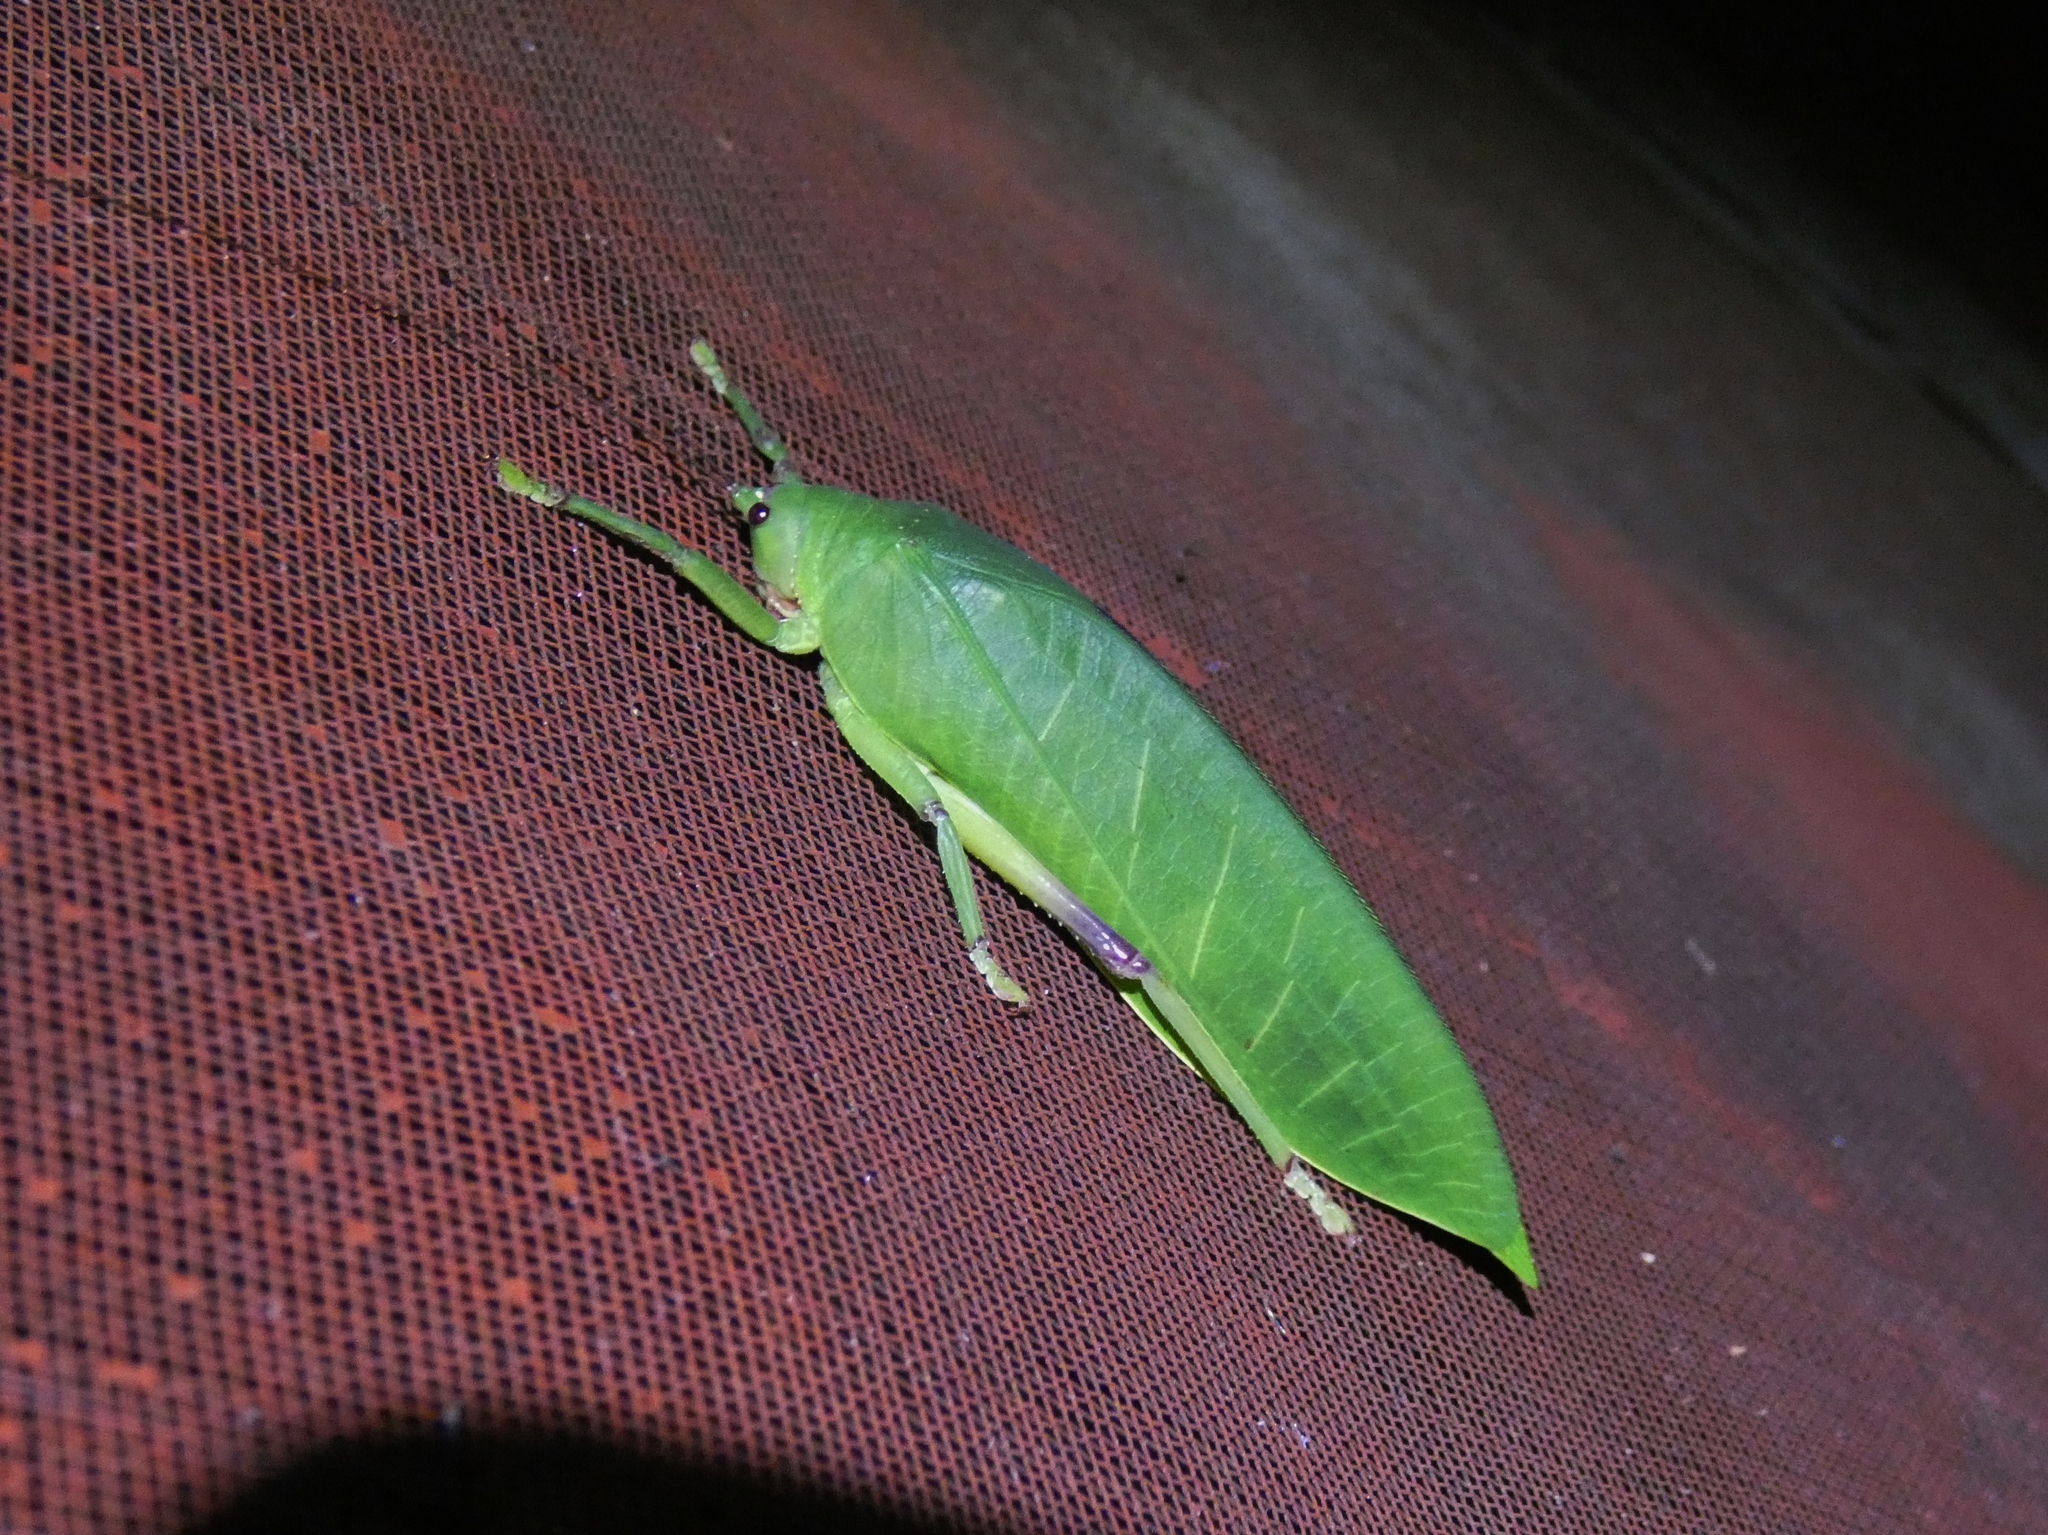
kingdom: Animalia
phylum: Arthropoda
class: Insecta
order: Orthoptera
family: Tettigoniidae
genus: Zabalius
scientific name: Zabalius ophthalmicus
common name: Blue-legged sylvan katydid
